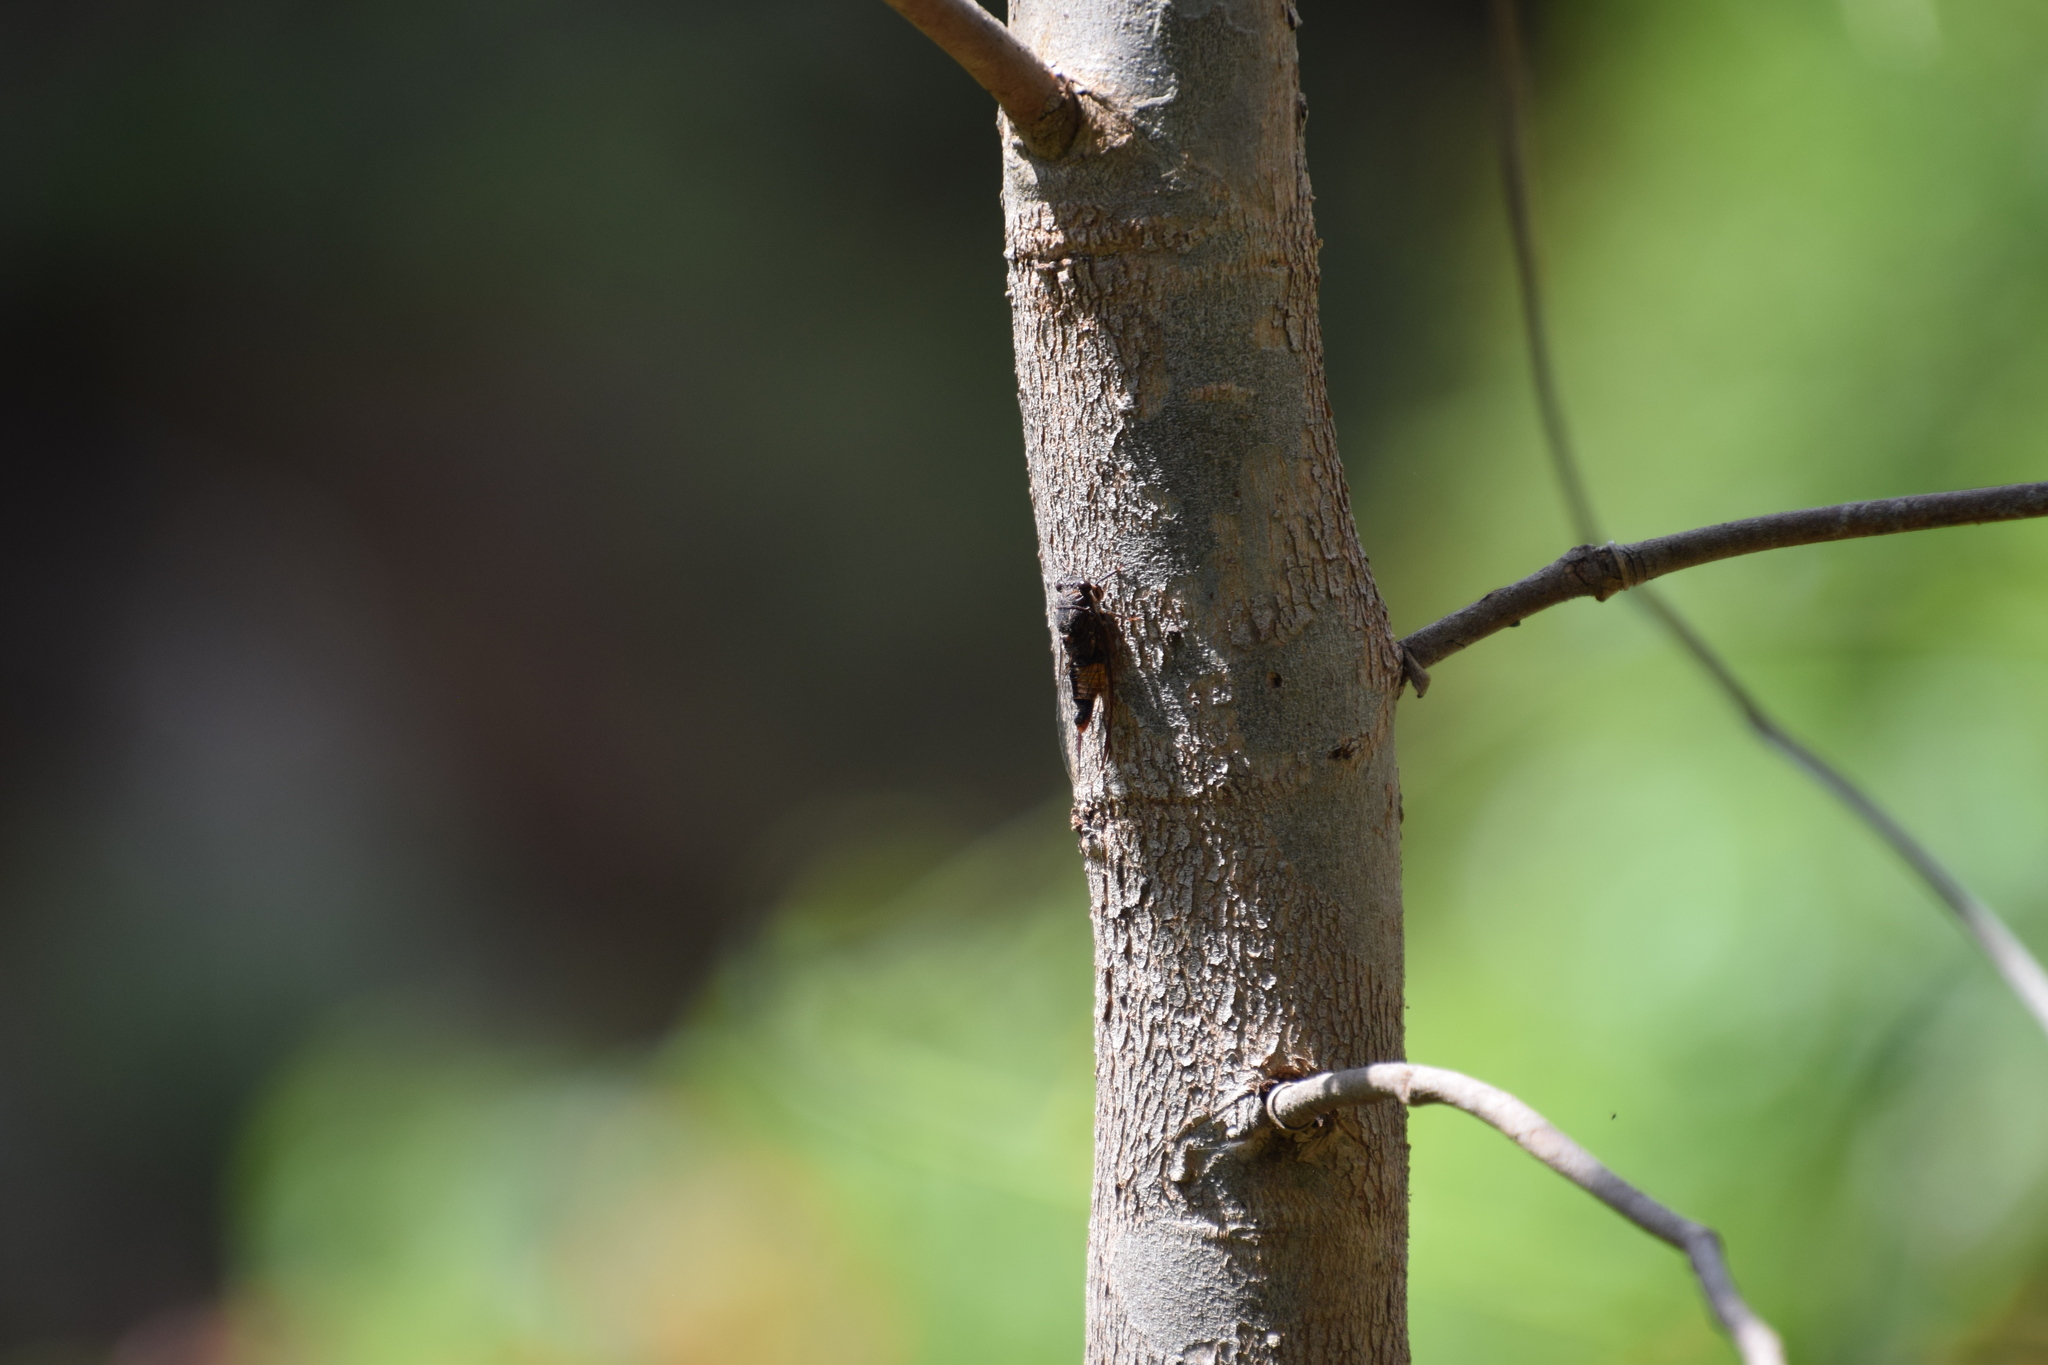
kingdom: Animalia
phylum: Arthropoda
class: Insecta
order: Hemiptera
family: Cicadidae
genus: Yoyetta
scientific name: Yoyetta repetens
